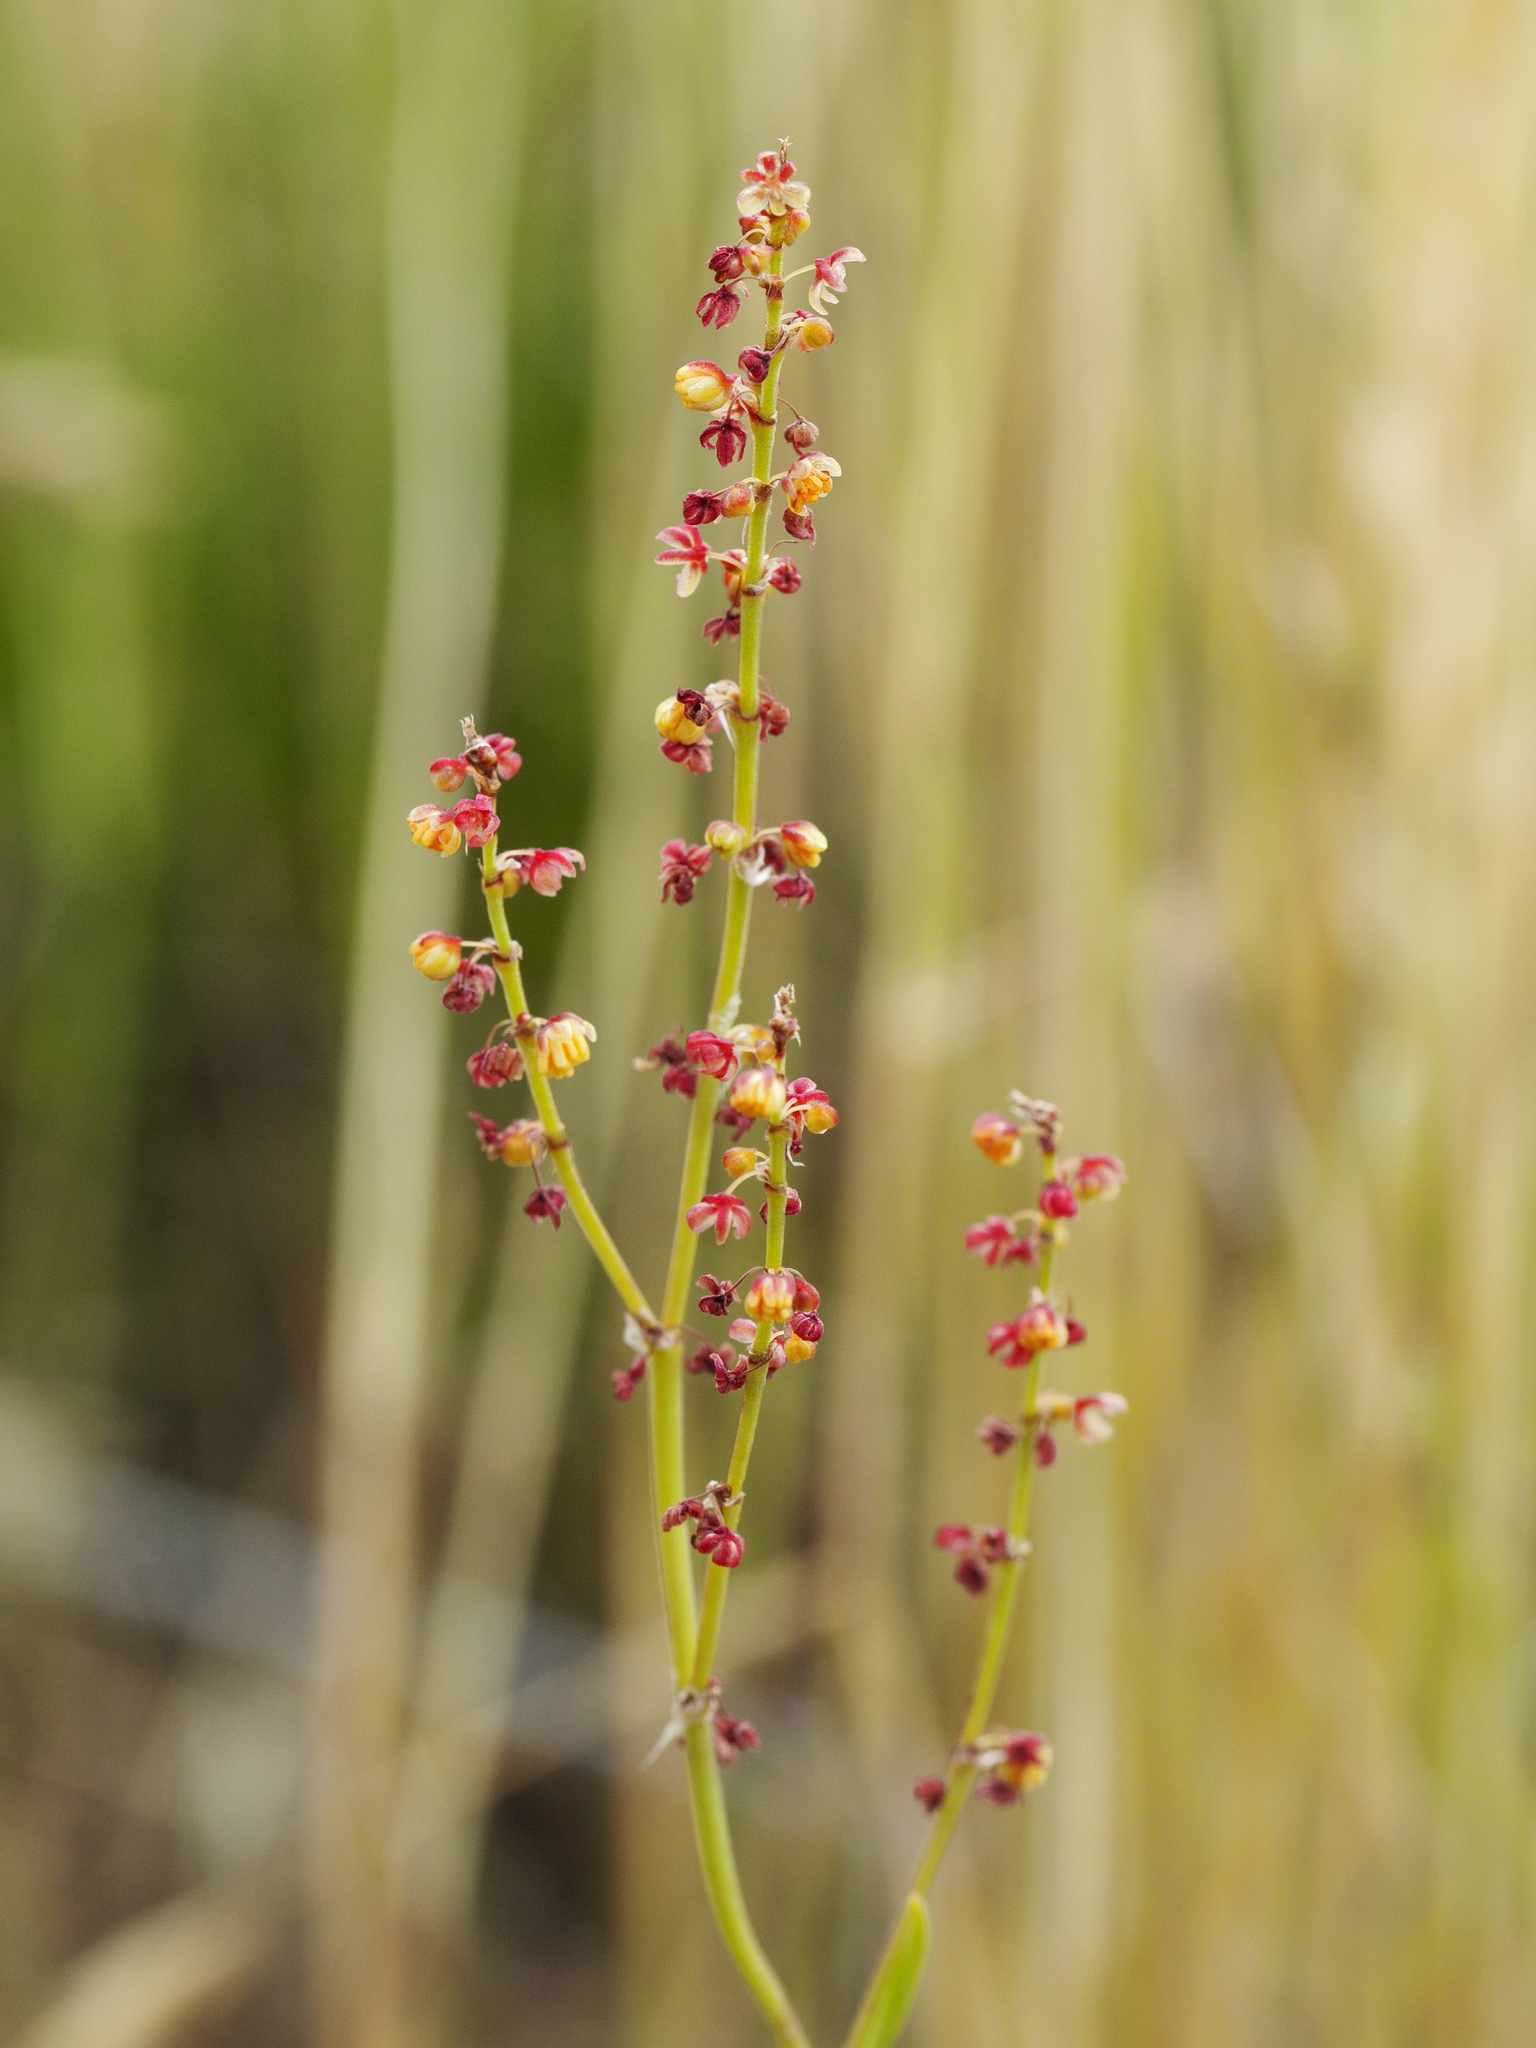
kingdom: Plantae
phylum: Tracheophyta
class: Magnoliopsida
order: Caryophyllales
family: Polygonaceae
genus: Rumex
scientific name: Rumex acetosella
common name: Common sheep sorrel
